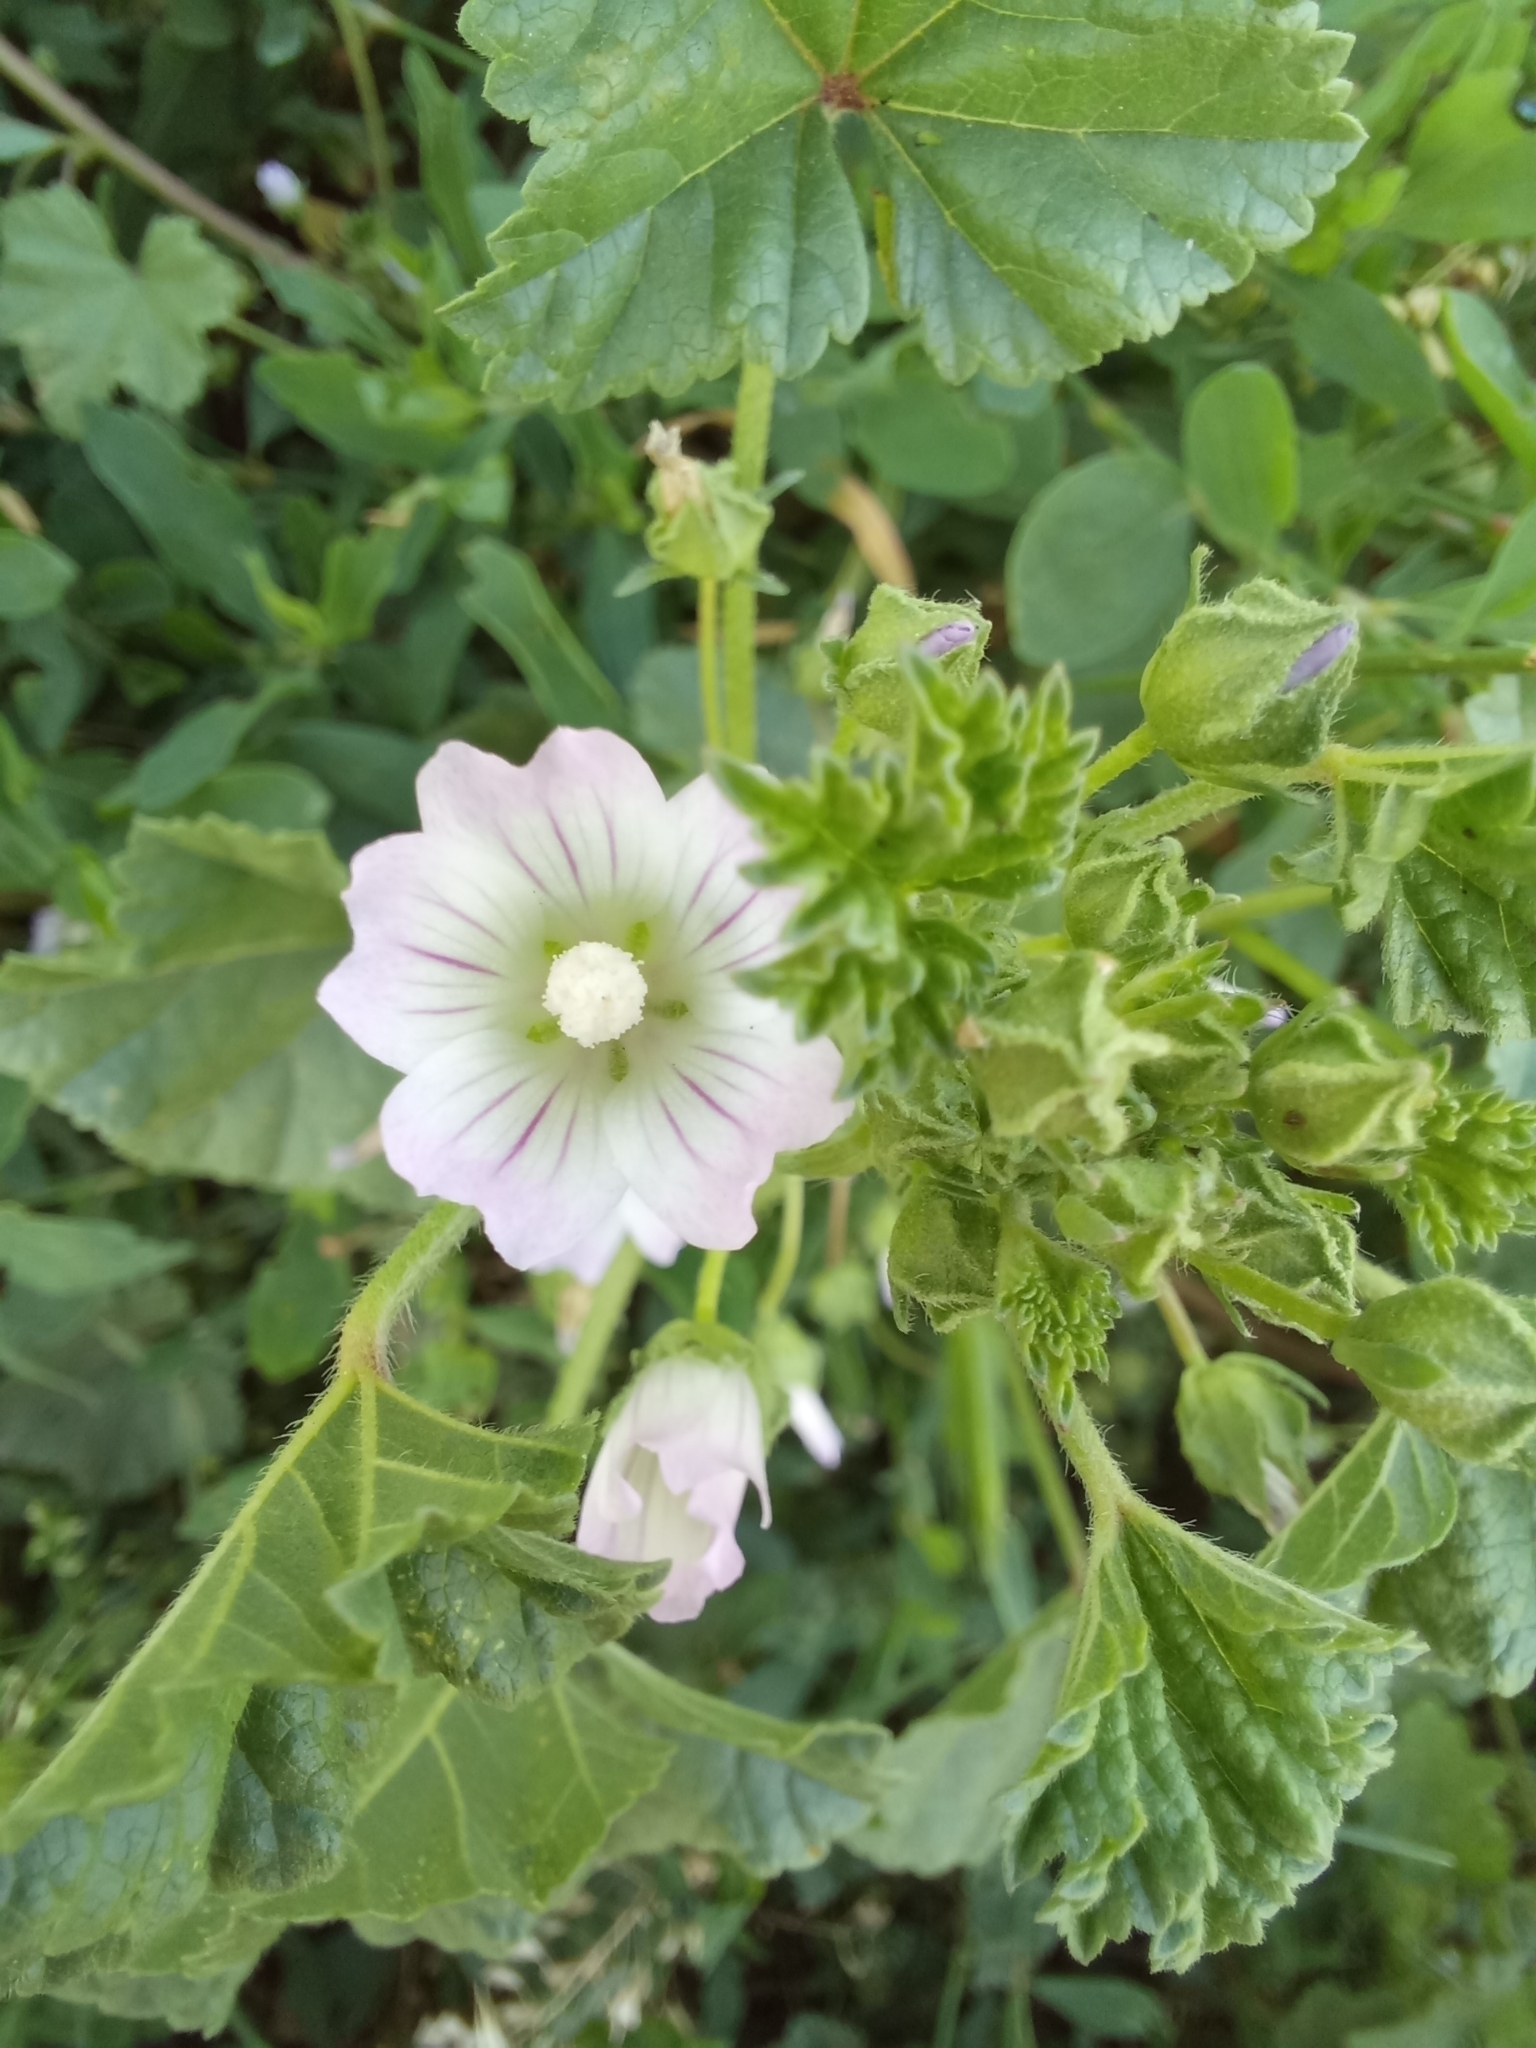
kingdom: Plantae
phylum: Tracheophyta
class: Magnoliopsida
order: Malvales
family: Malvaceae
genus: Malva
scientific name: Malva neglecta
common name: Common mallow
